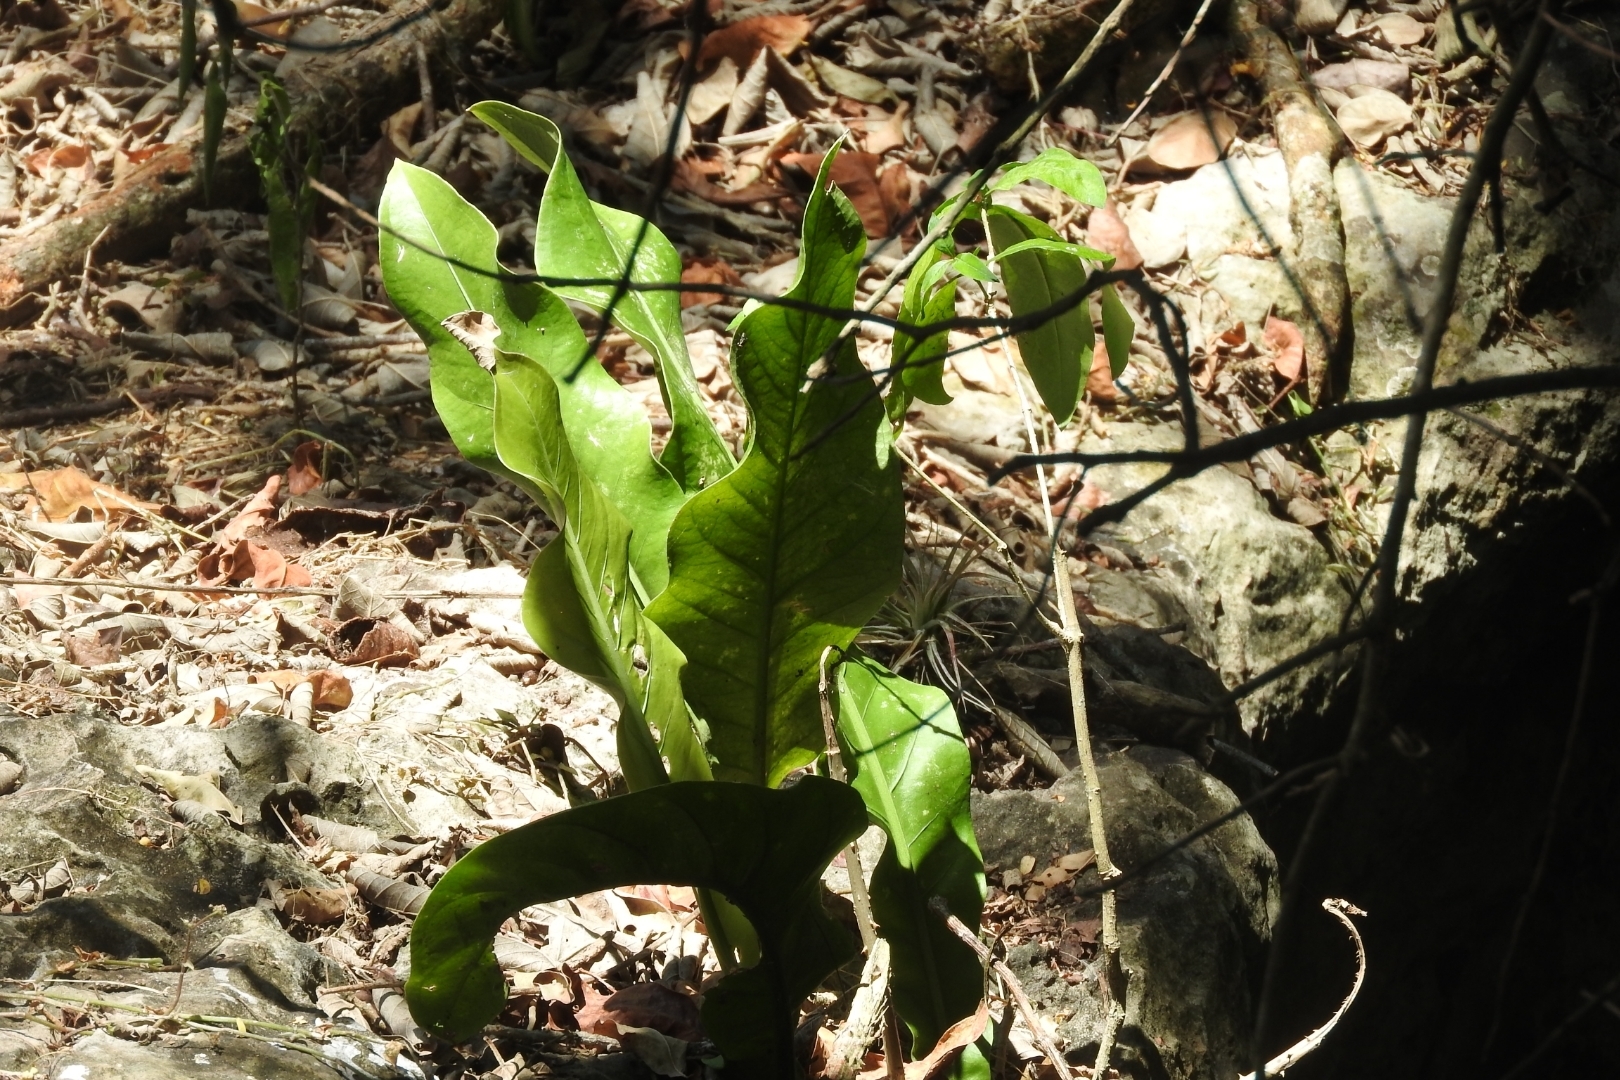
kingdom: Plantae
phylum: Tracheophyta
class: Liliopsida
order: Alismatales
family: Araceae
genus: Anthurium
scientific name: Anthurium schlechtendalii
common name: Laceleaf
